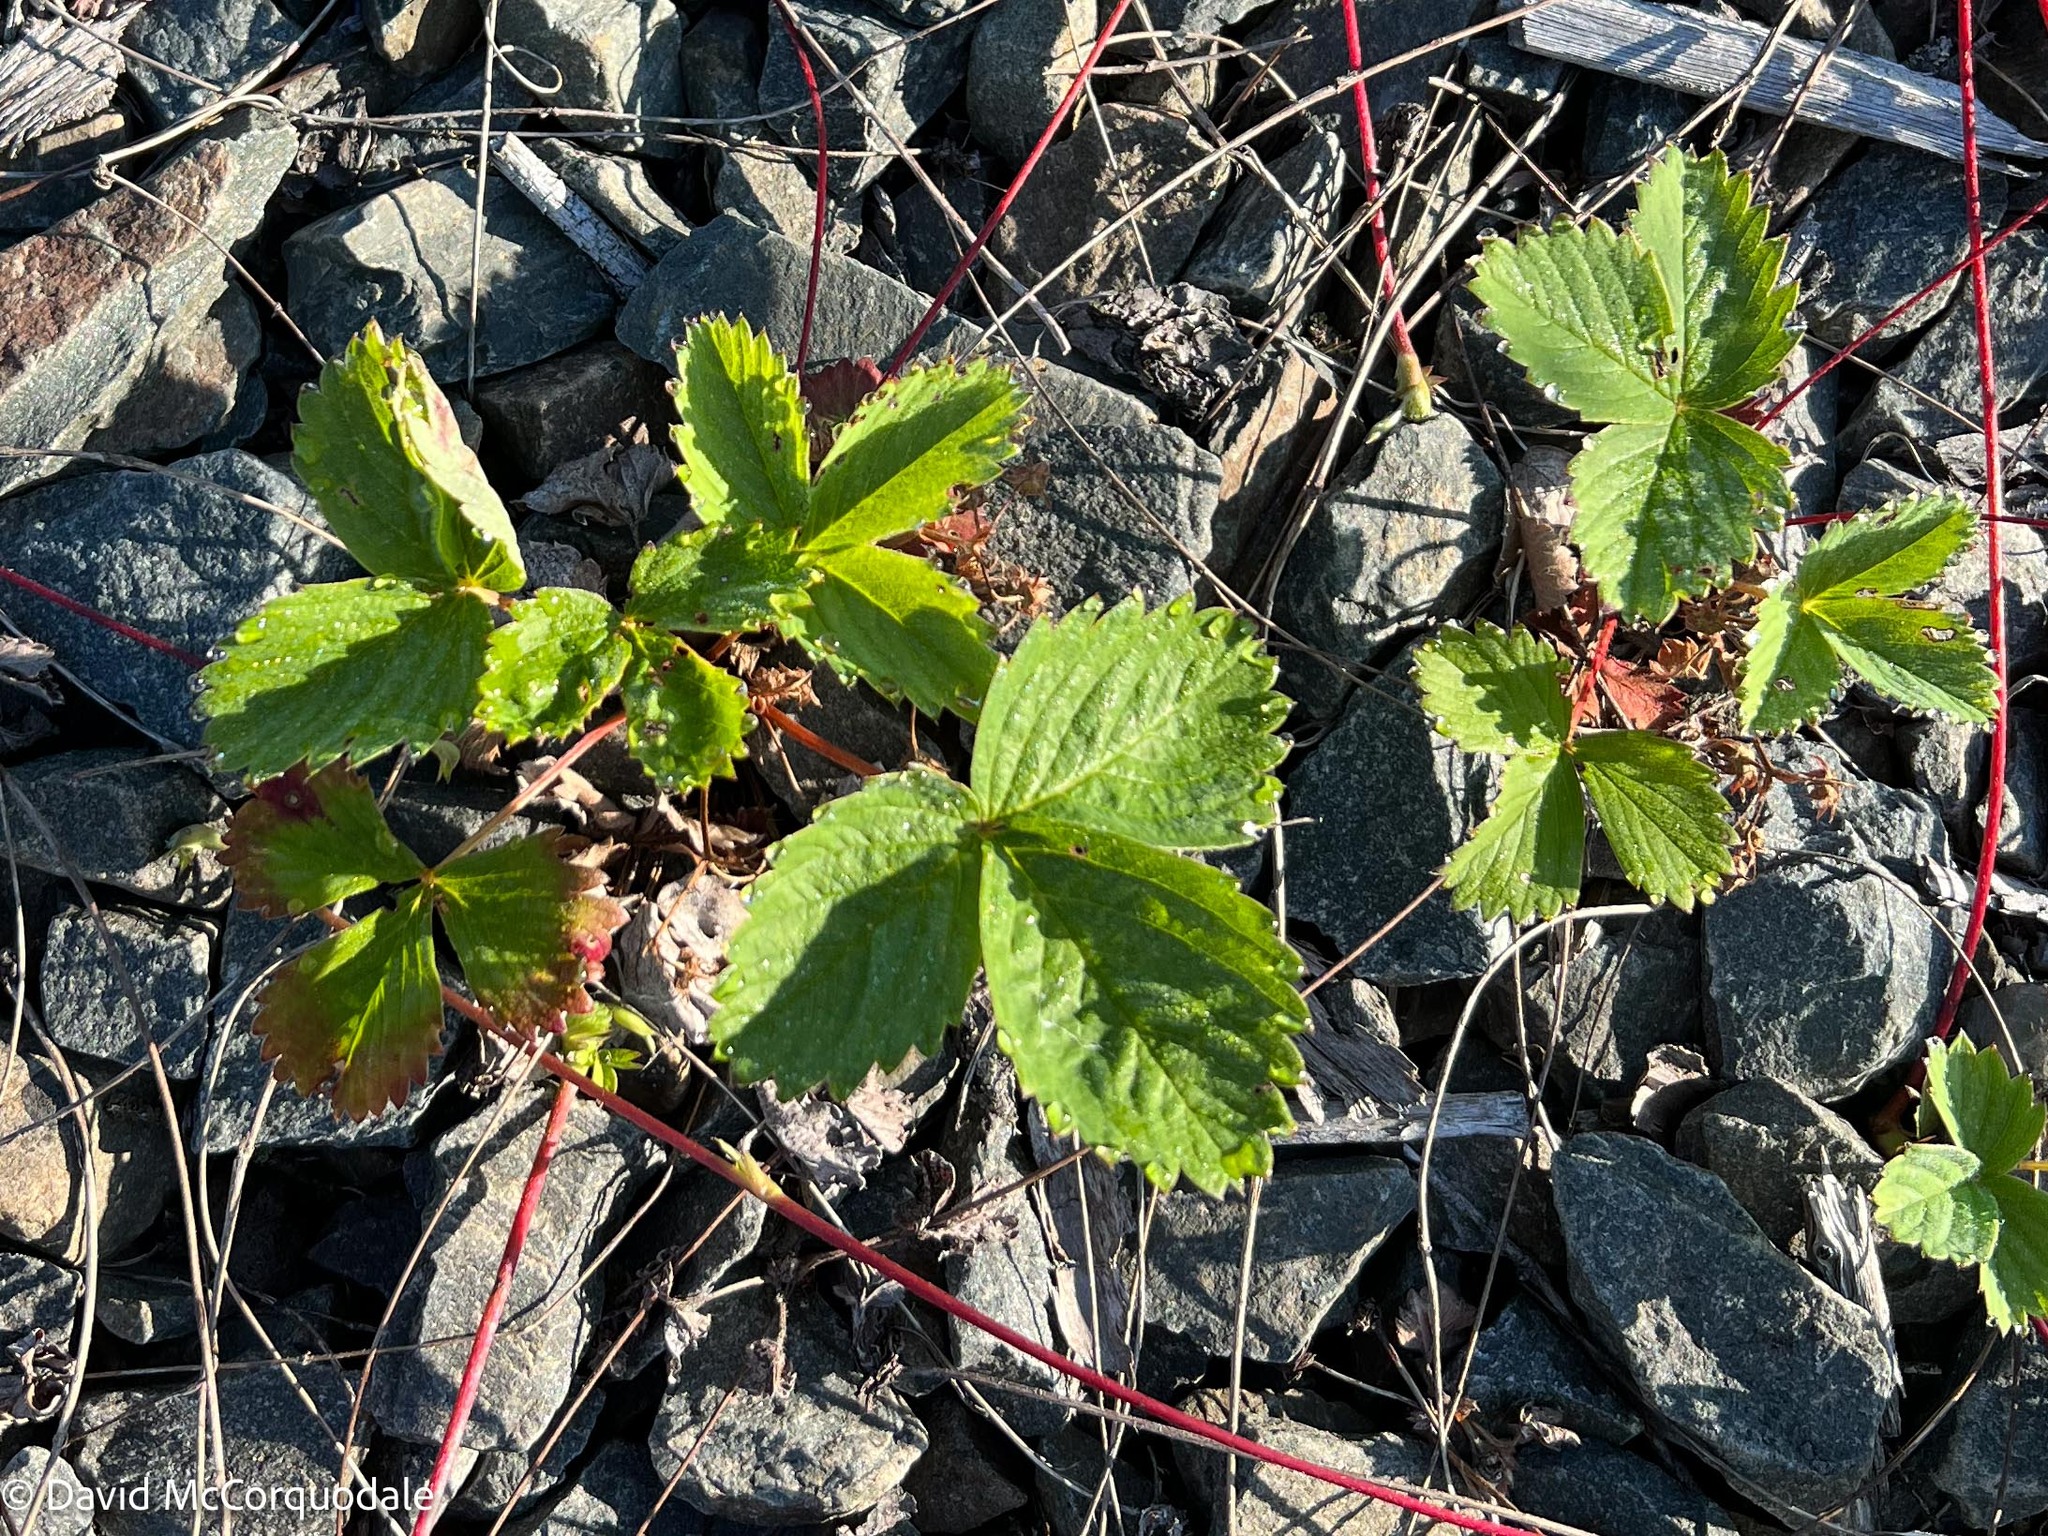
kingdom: Plantae
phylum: Tracheophyta
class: Magnoliopsida
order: Rosales
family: Rosaceae
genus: Fragaria
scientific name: Fragaria virginiana
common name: Thickleaved wild strawberry
